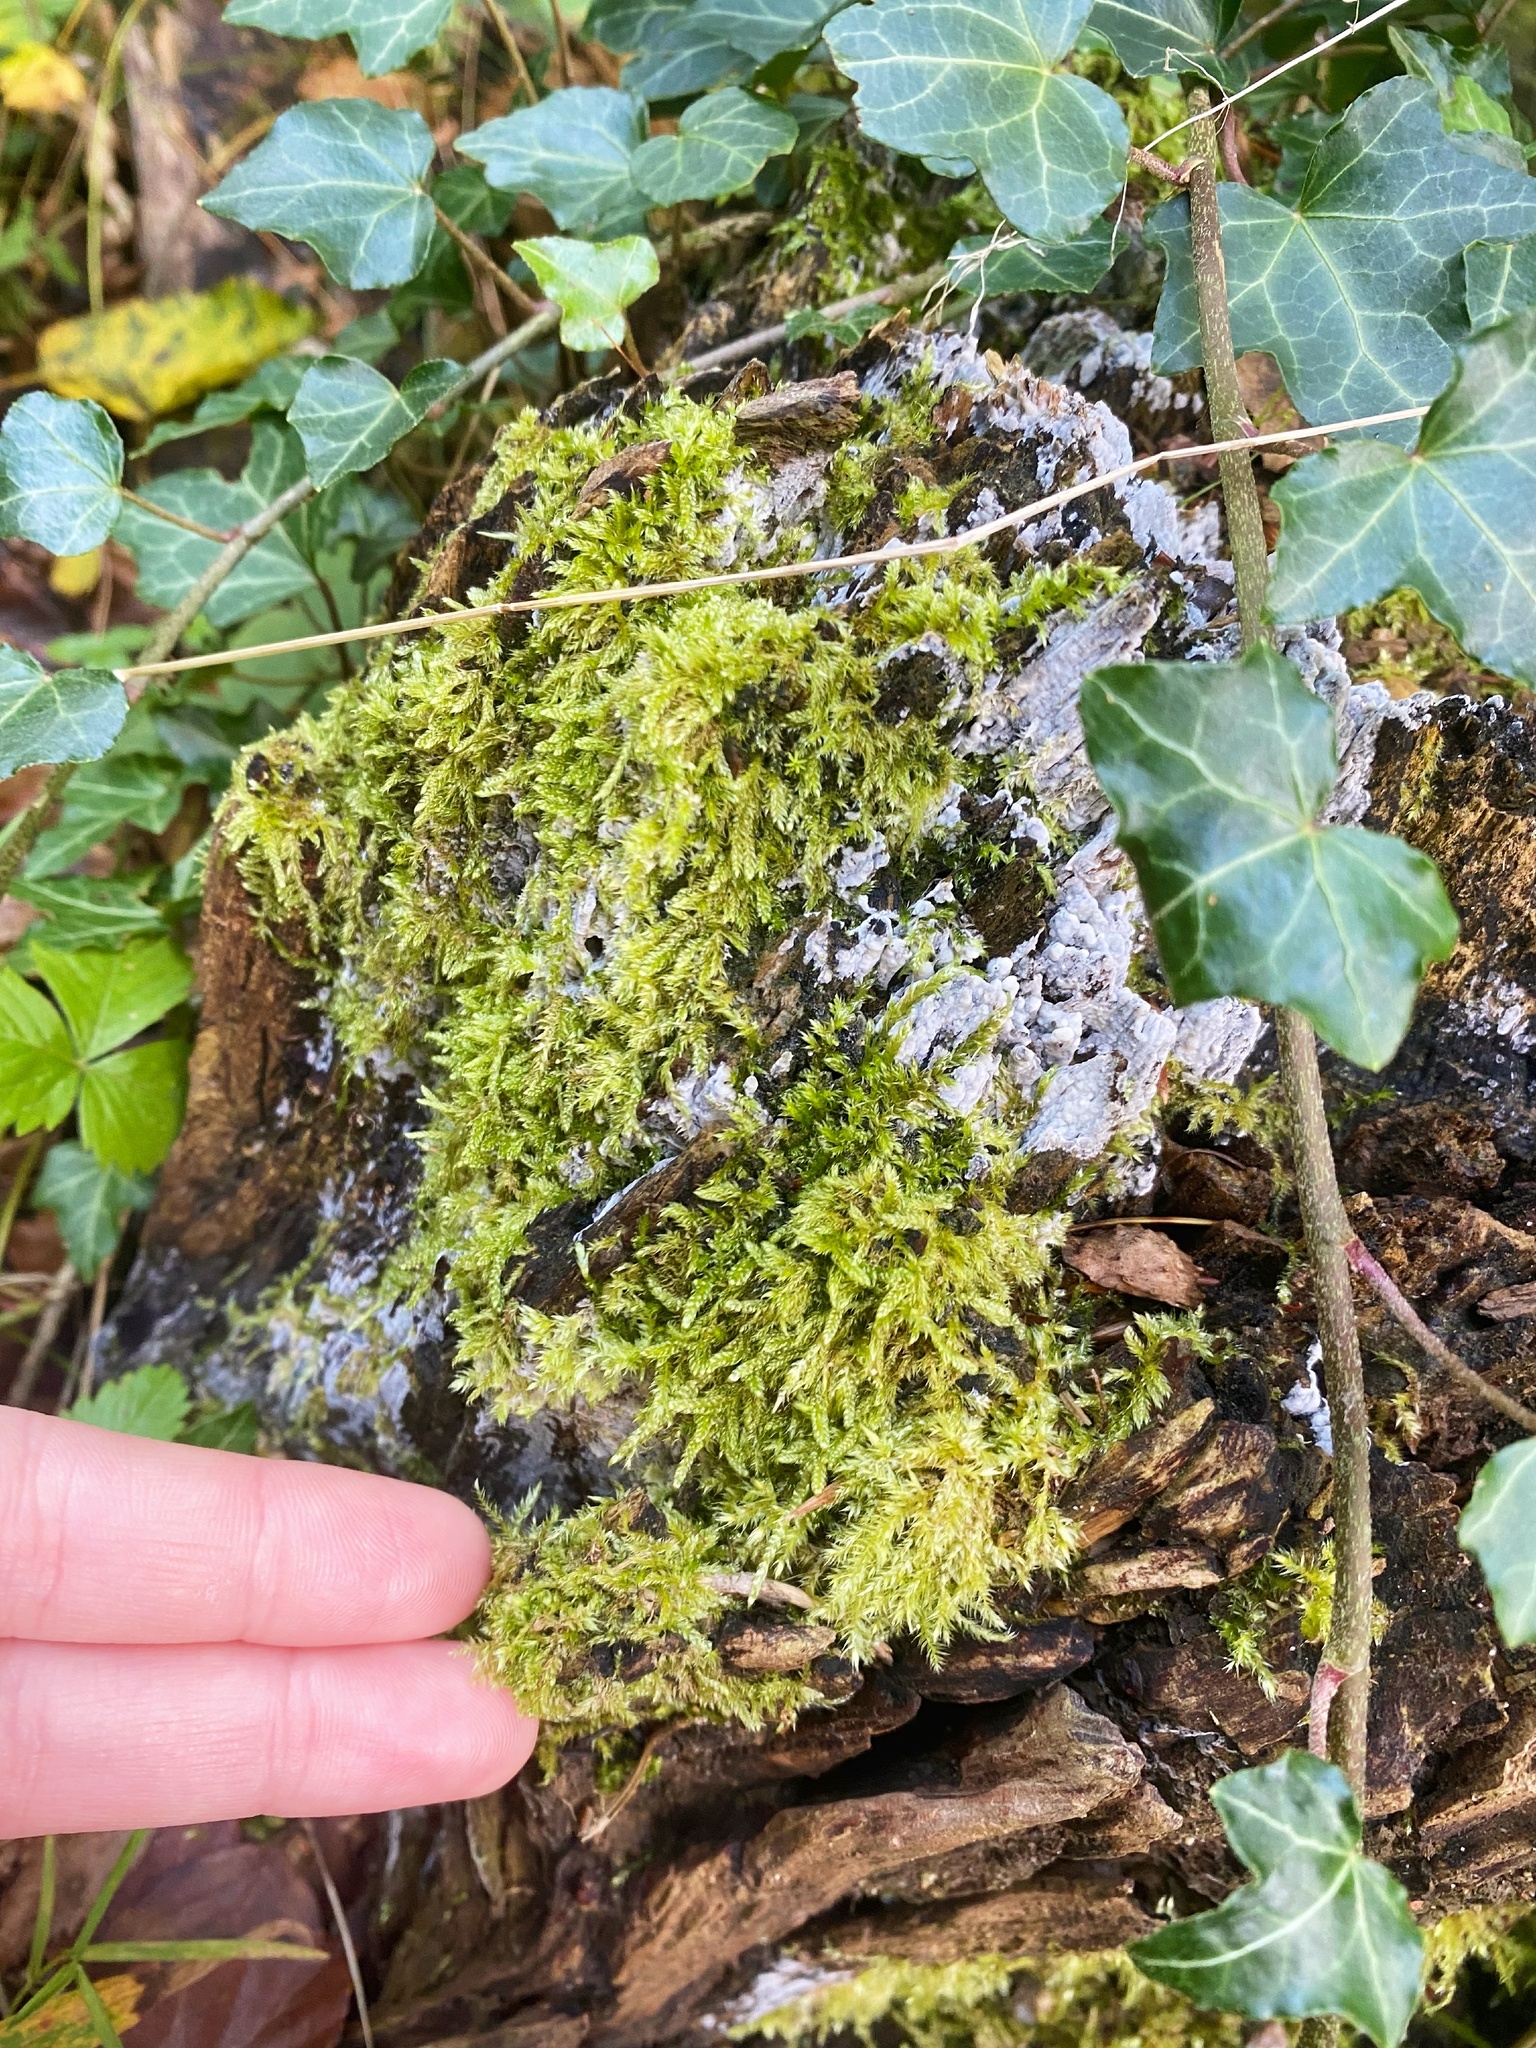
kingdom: Plantae
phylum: Bryophyta
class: Bryopsida
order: Hypnales
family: Hypnaceae
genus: Hypnum
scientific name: Hypnum cupressiforme
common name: Cypress-leaved plait-moss
